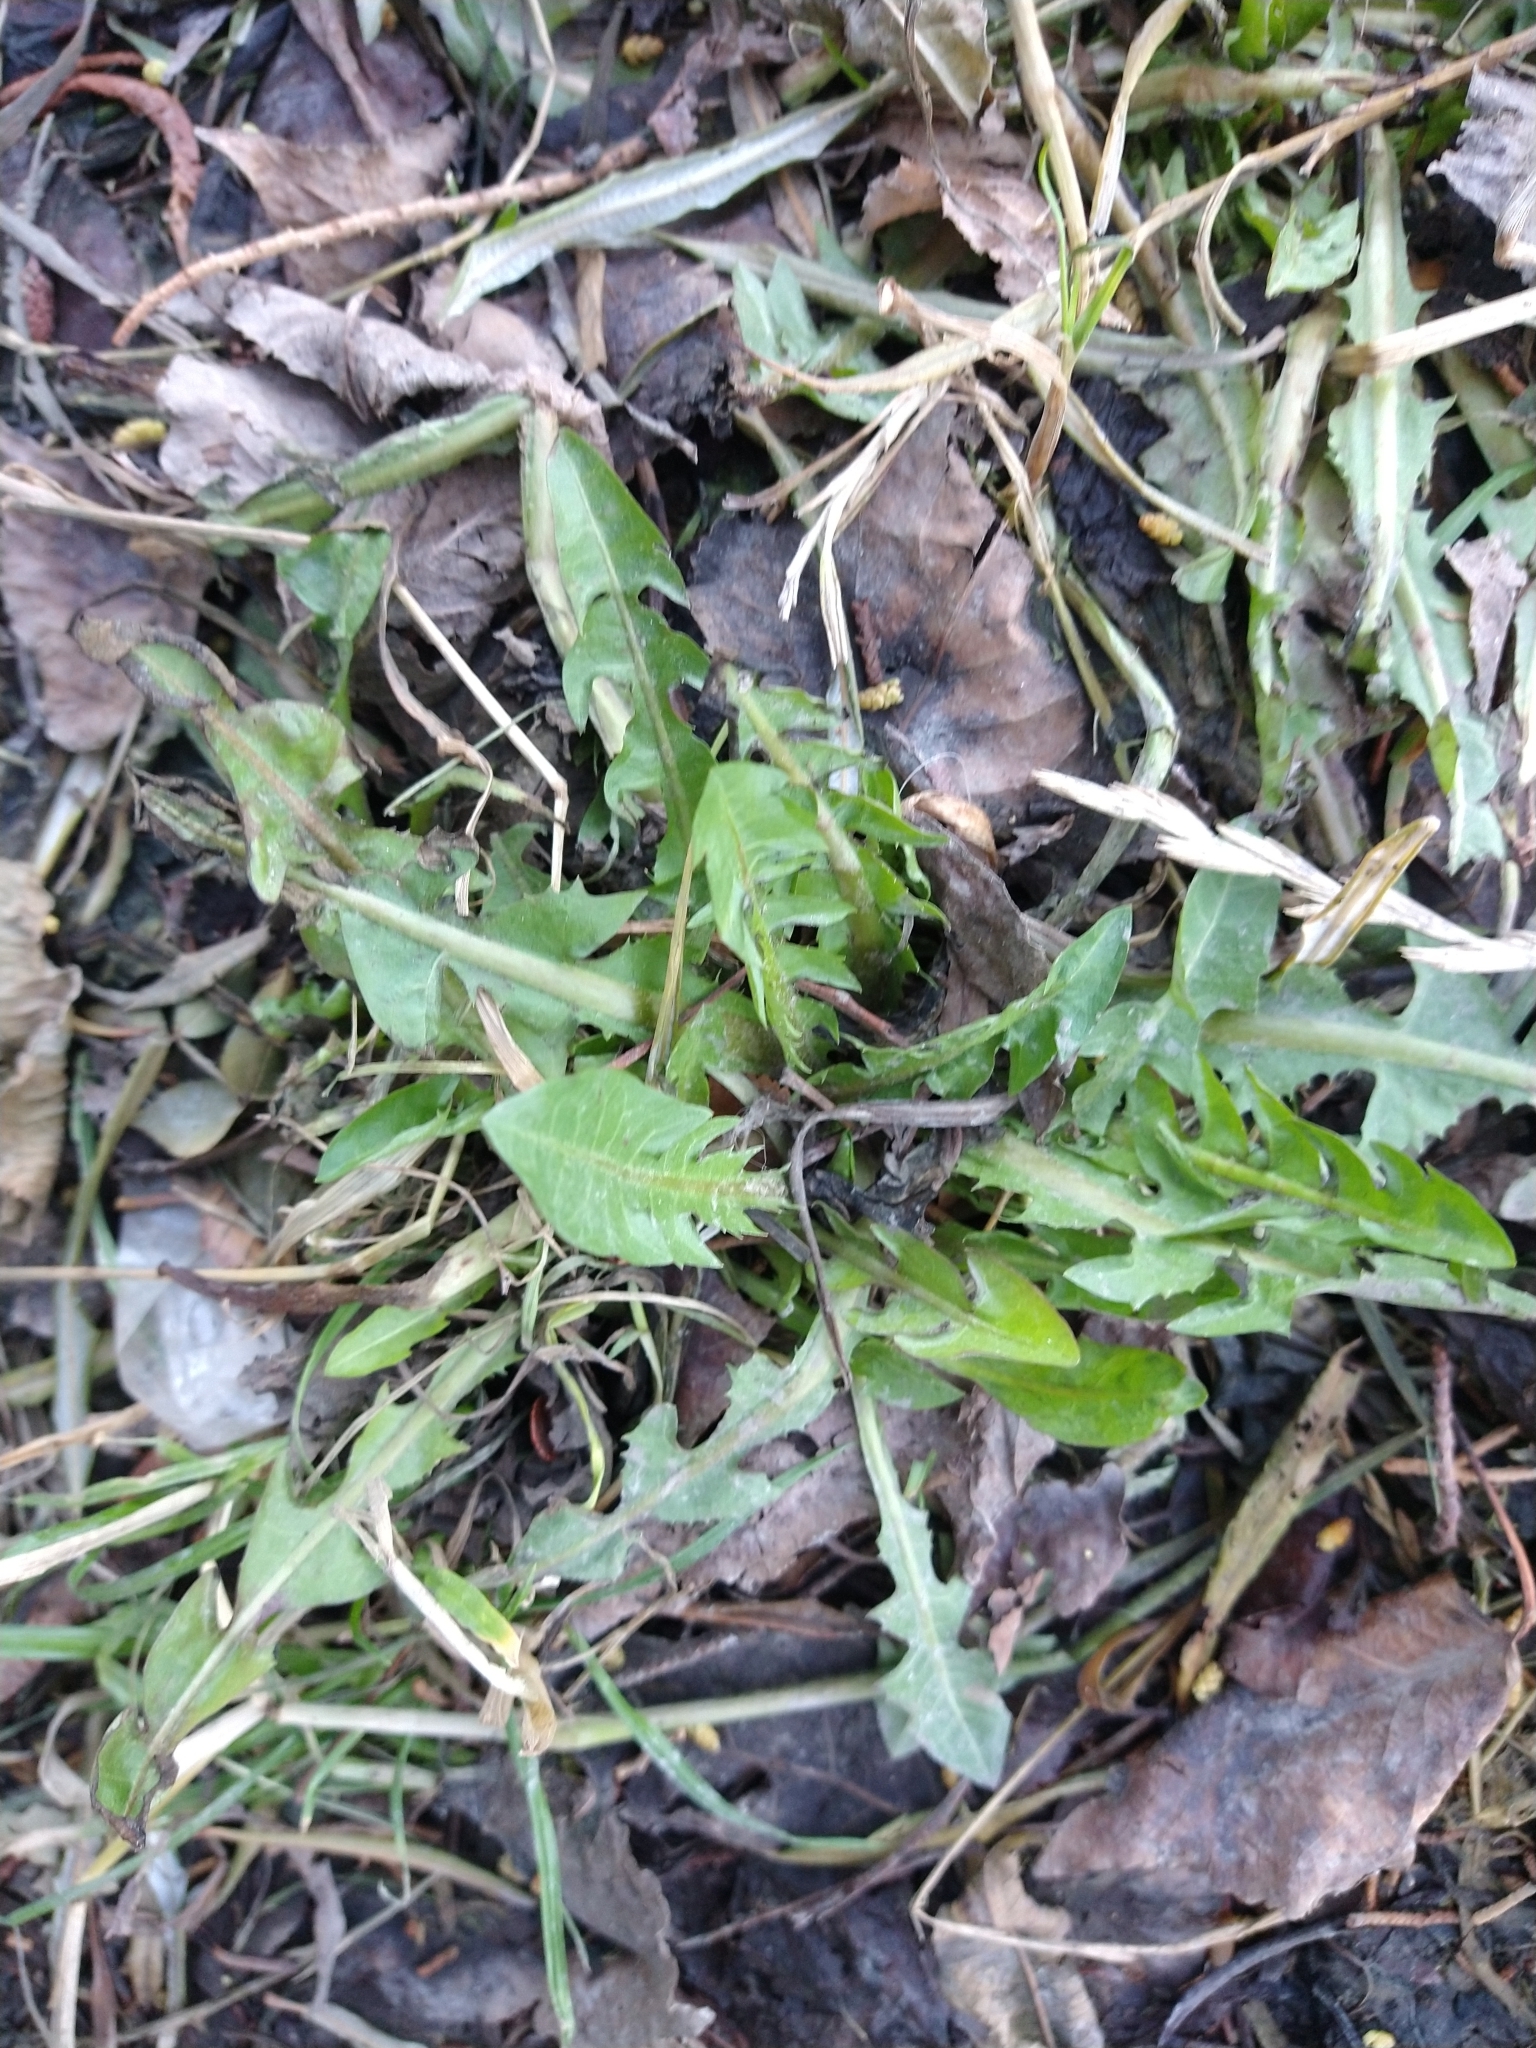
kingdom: Plantae
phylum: Tracheophyta
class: Magnoliopsida
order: Asterales
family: Asteraceae
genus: Taraxacum
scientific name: Taraxacum officinale
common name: Common dandelion
